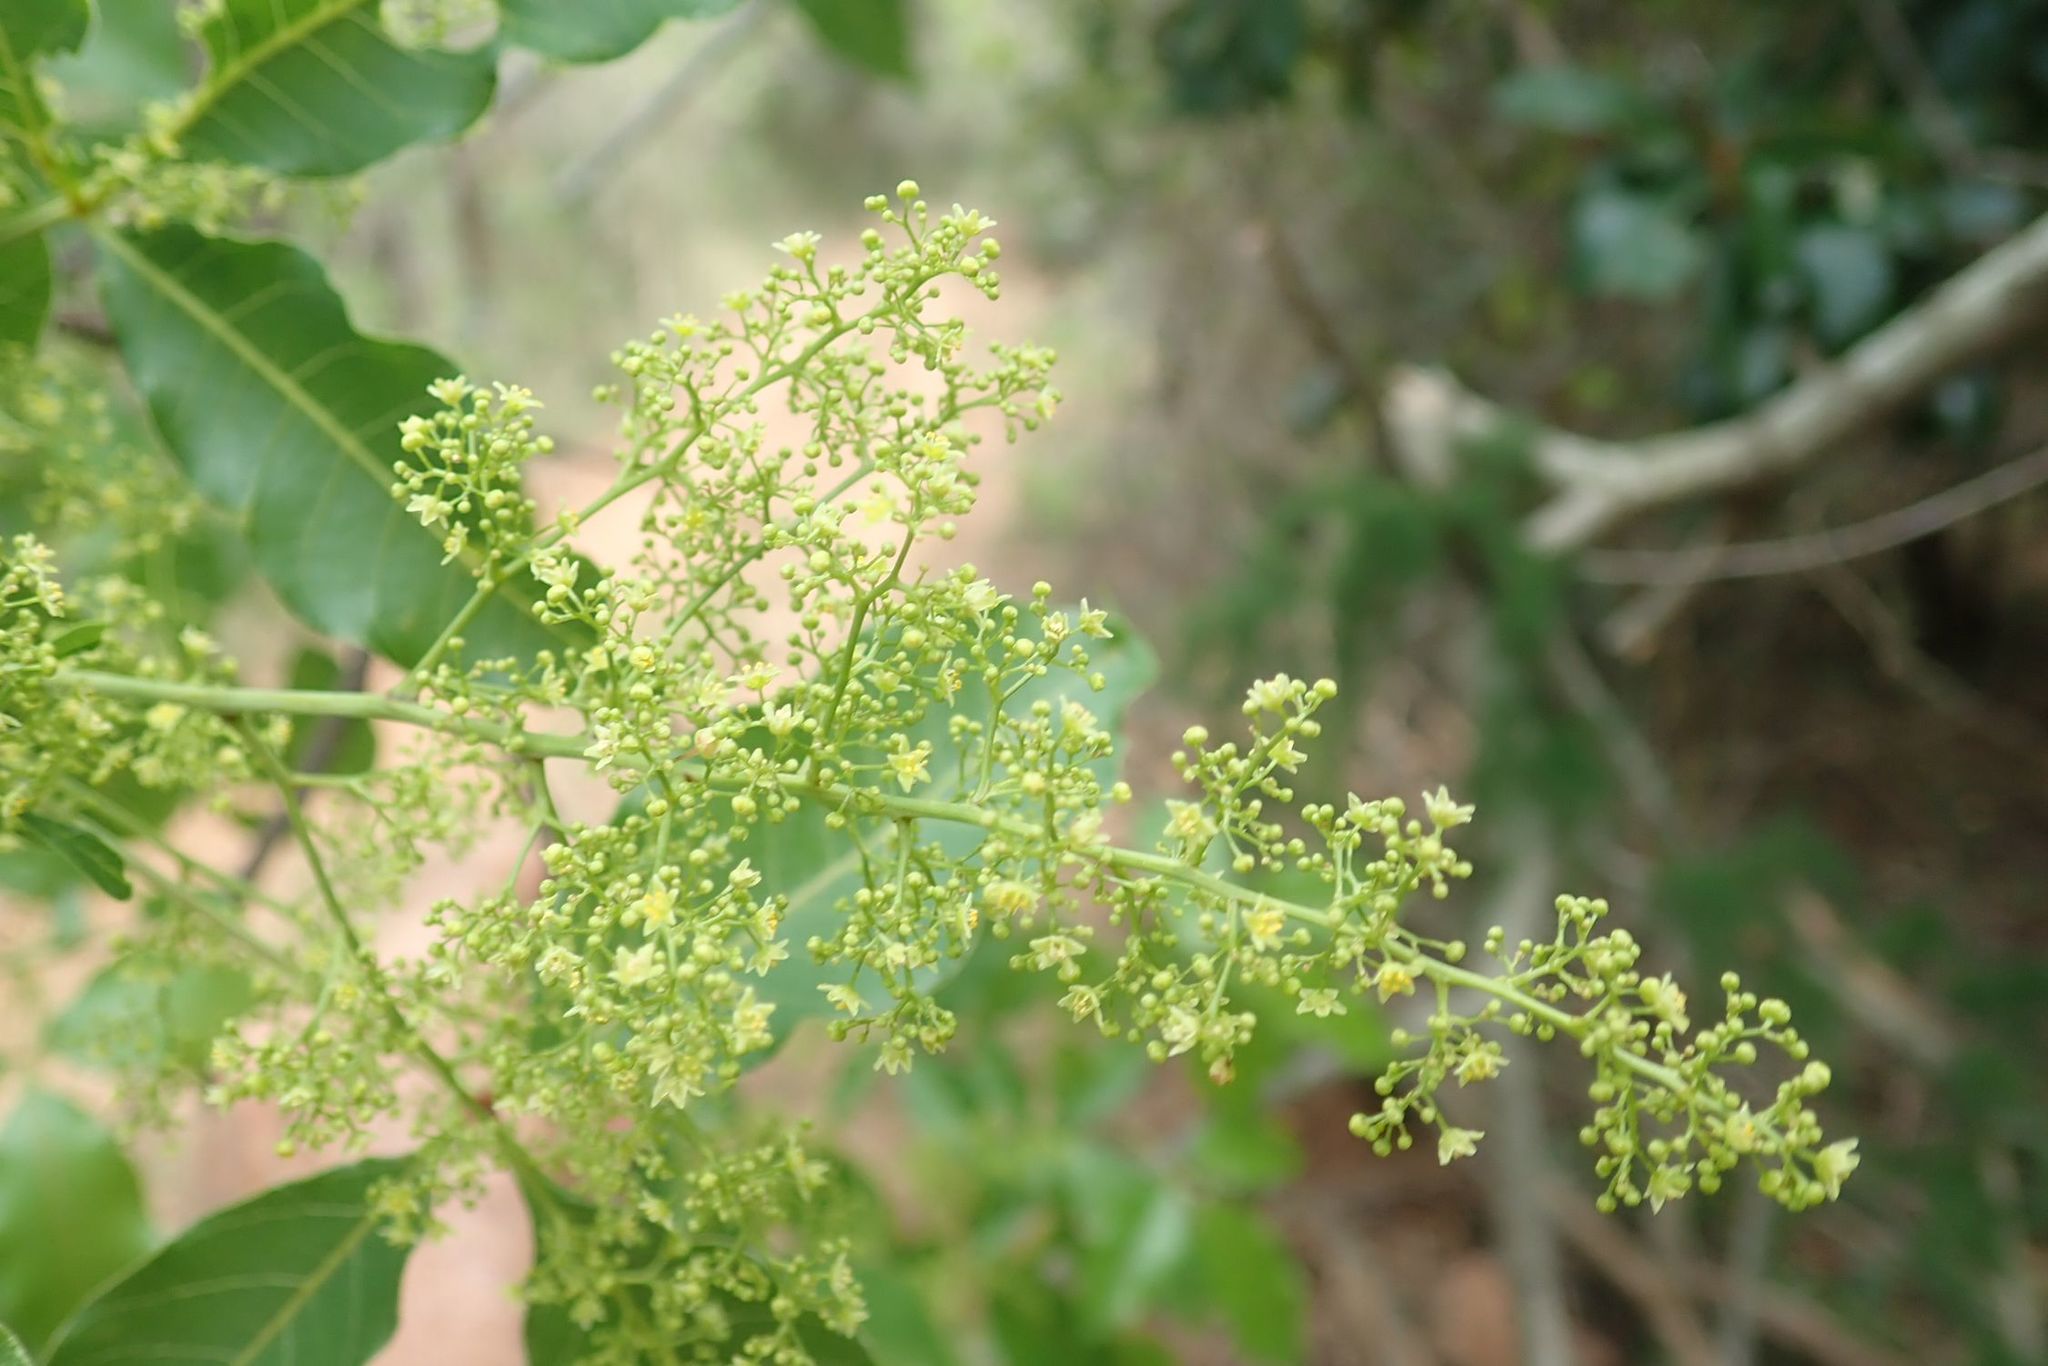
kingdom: Plantae
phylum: Tracheophyta
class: Magnoliopsida
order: Sapindales
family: Anacardiaceae
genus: Searsia
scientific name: Searsia chirindensis
